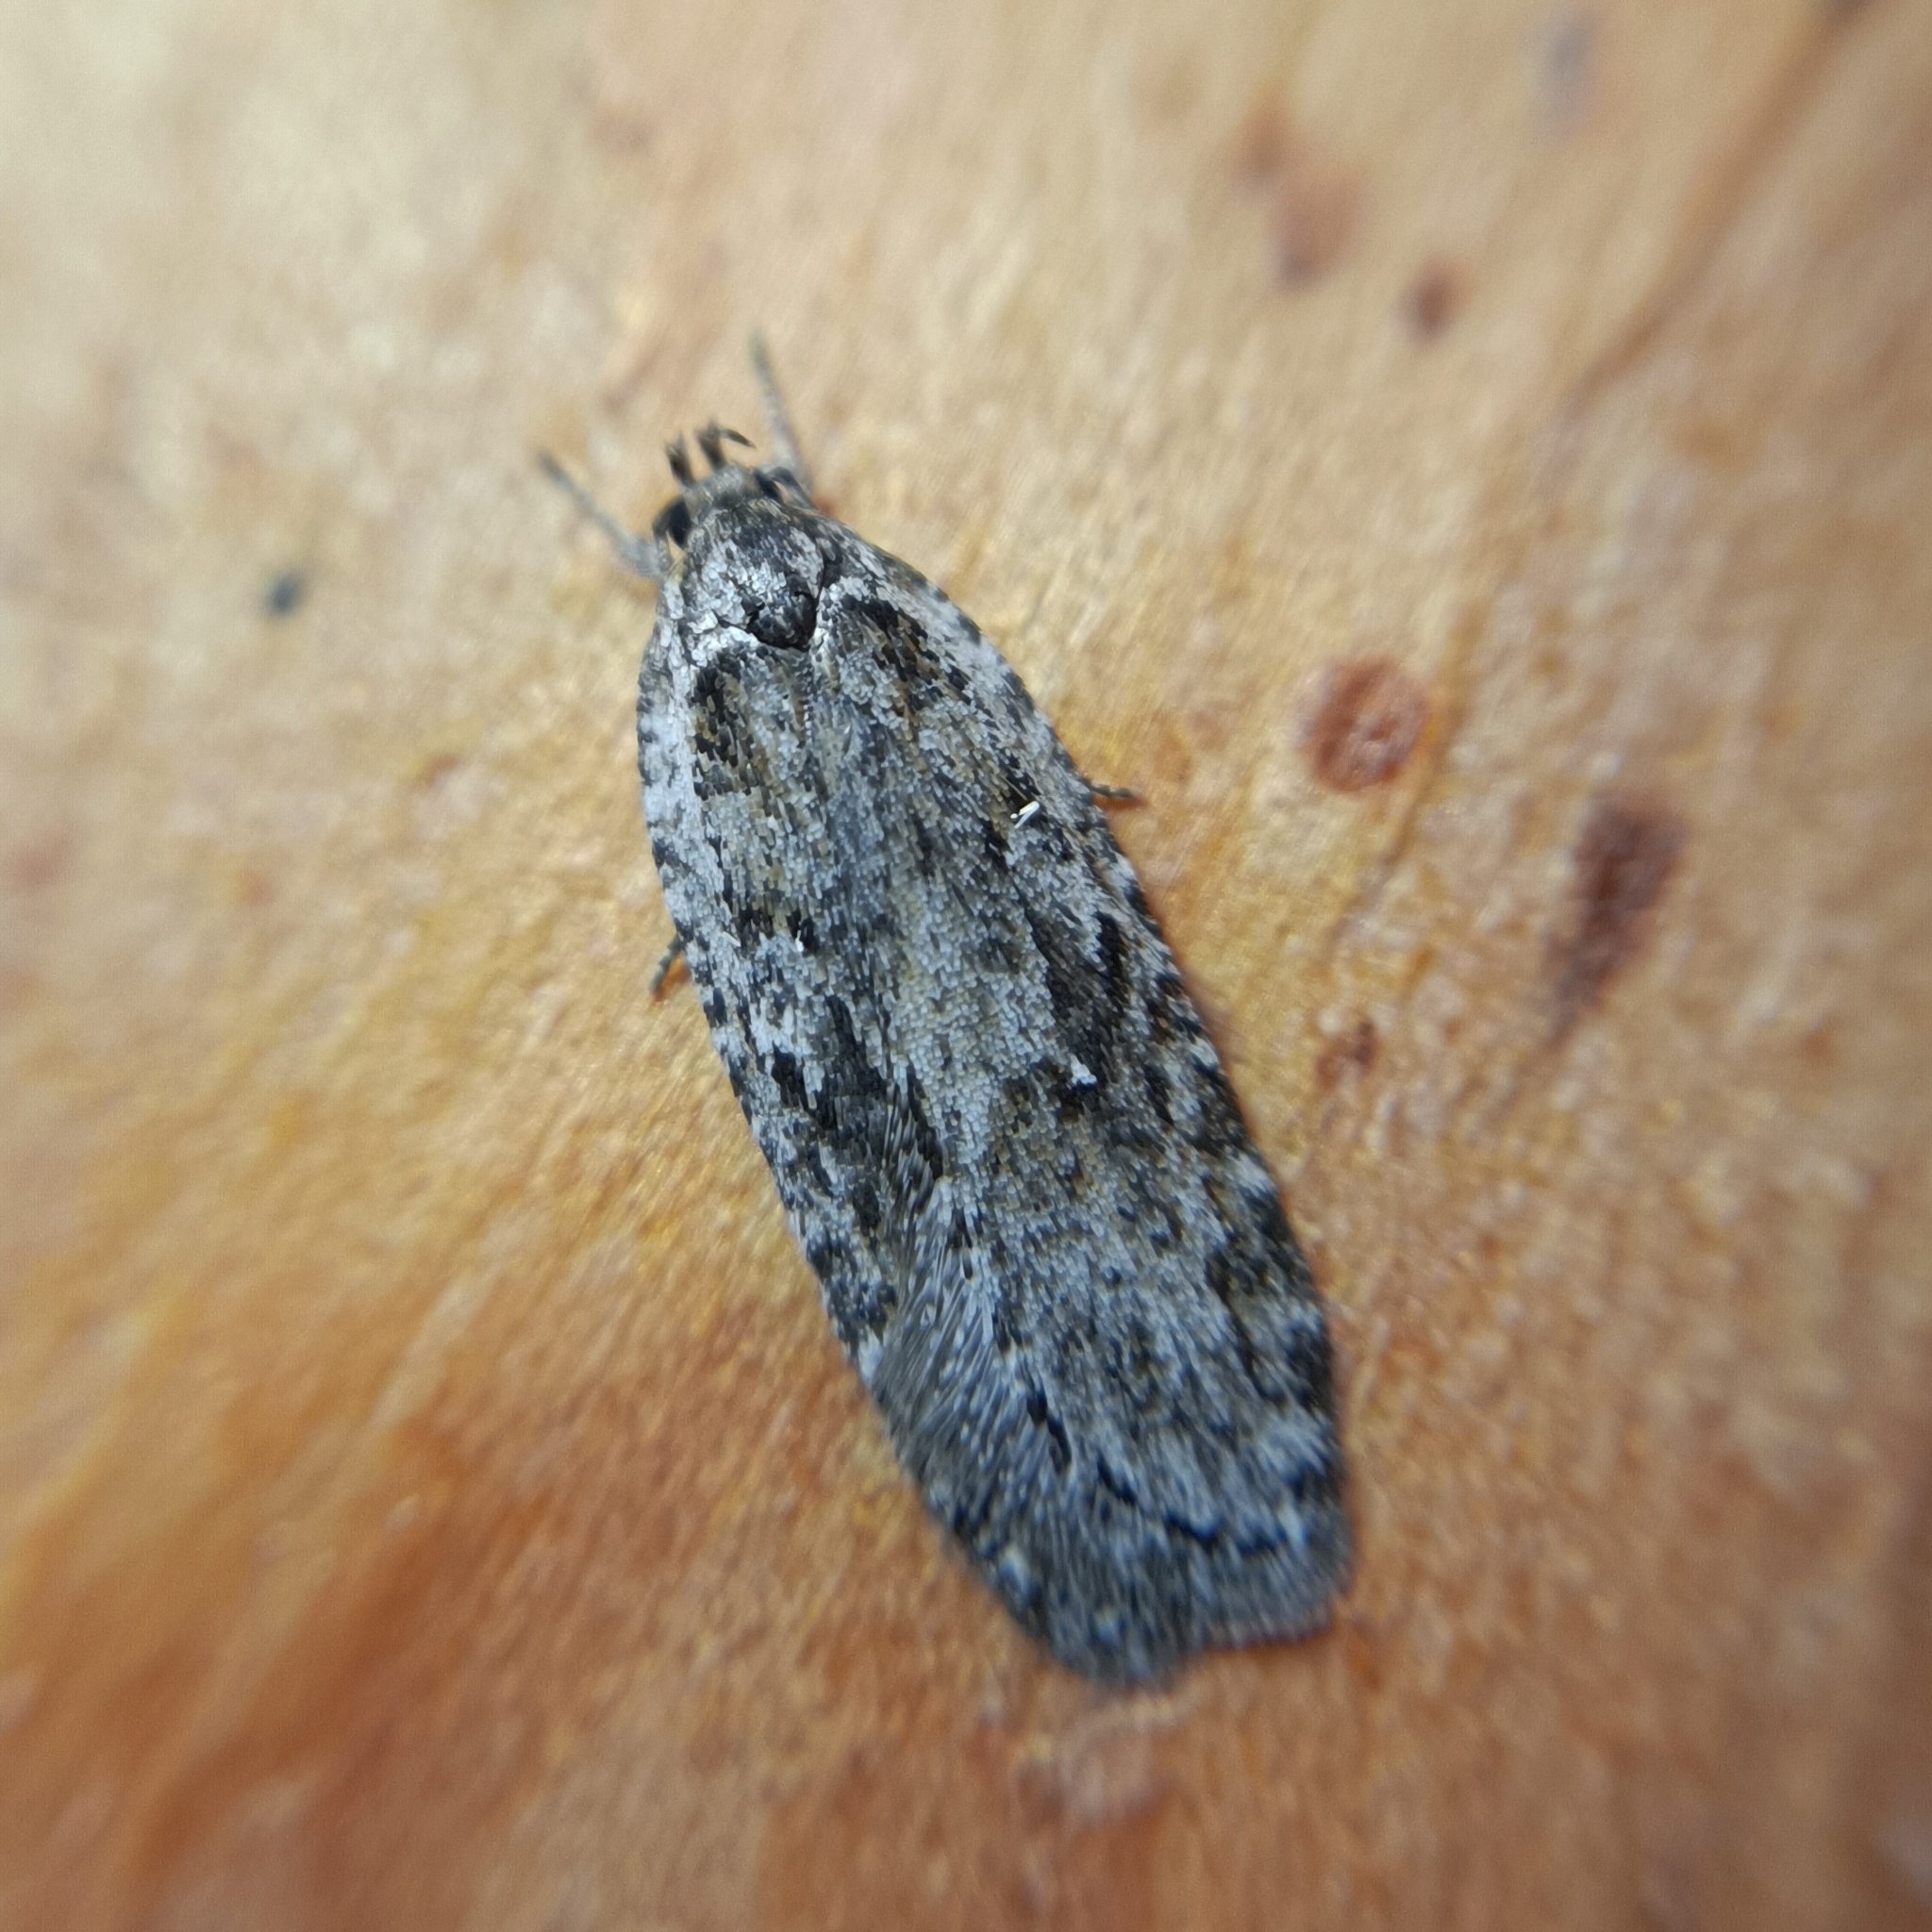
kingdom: Animalia
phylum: Arthropoda
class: Insecta
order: Lepidoptera
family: Depressariidae
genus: Exaeretia
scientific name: Exaeretia ciniflonella
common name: Scotch flat-body
